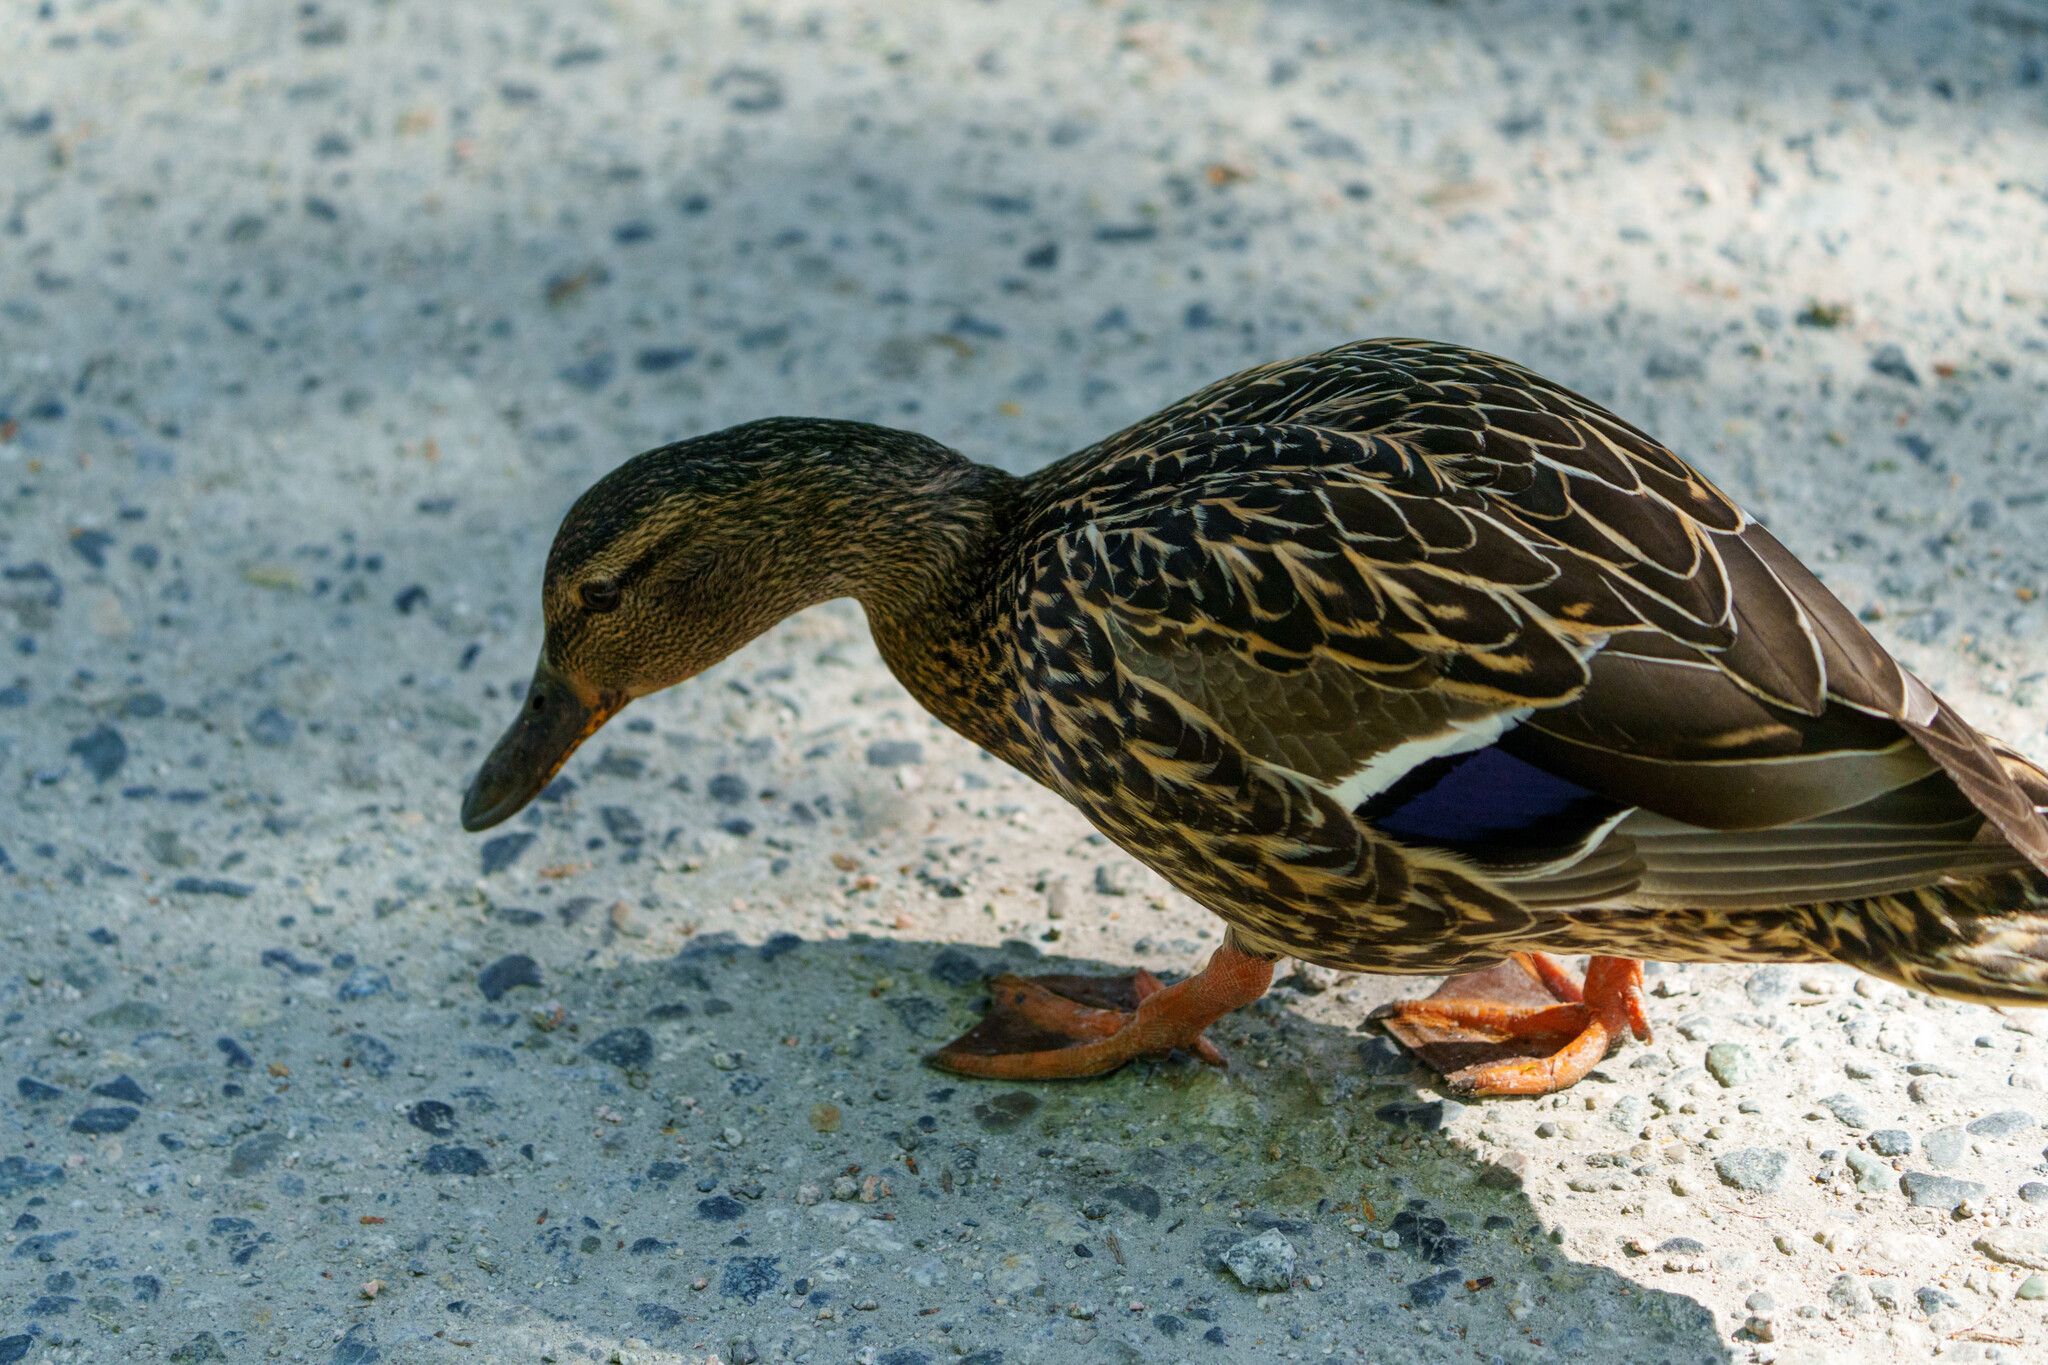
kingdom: Animalia
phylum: Chordata
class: Aves
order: Anseriformes
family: Anatidae
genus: Anas
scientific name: Anas platyrhynchos
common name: Mallard
